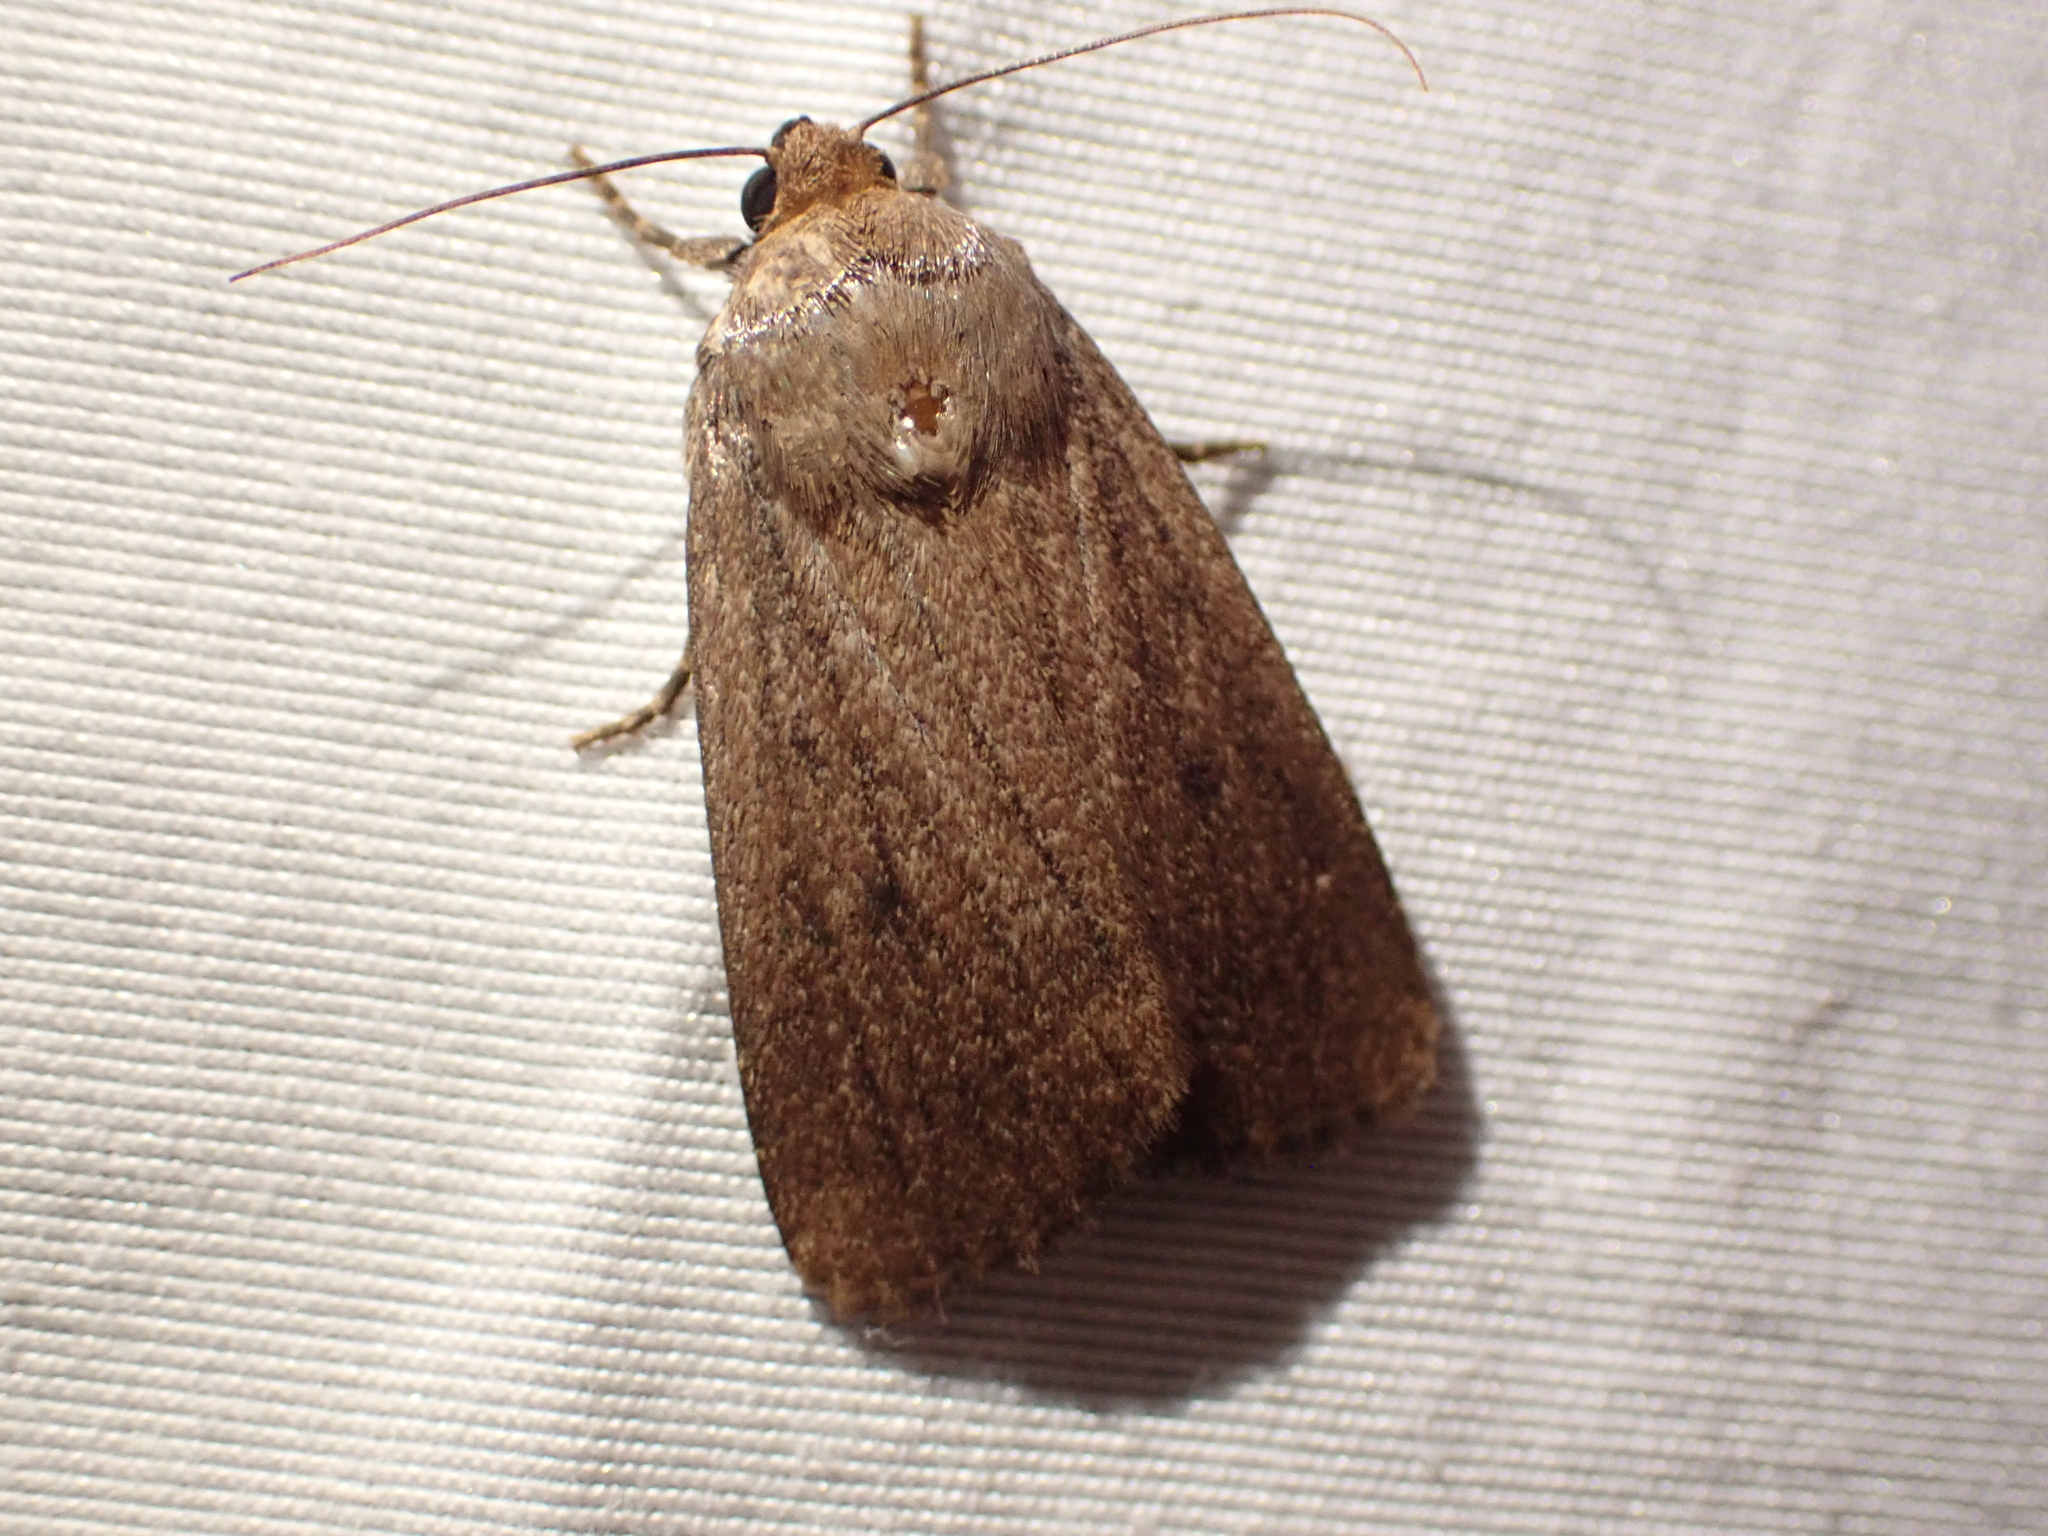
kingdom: Animalia
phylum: Arthropoda
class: Insecta
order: Lepidoptera
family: Noctuidae
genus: Amphipyra
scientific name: Amphipyra tragopoginis
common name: Mouse moth
